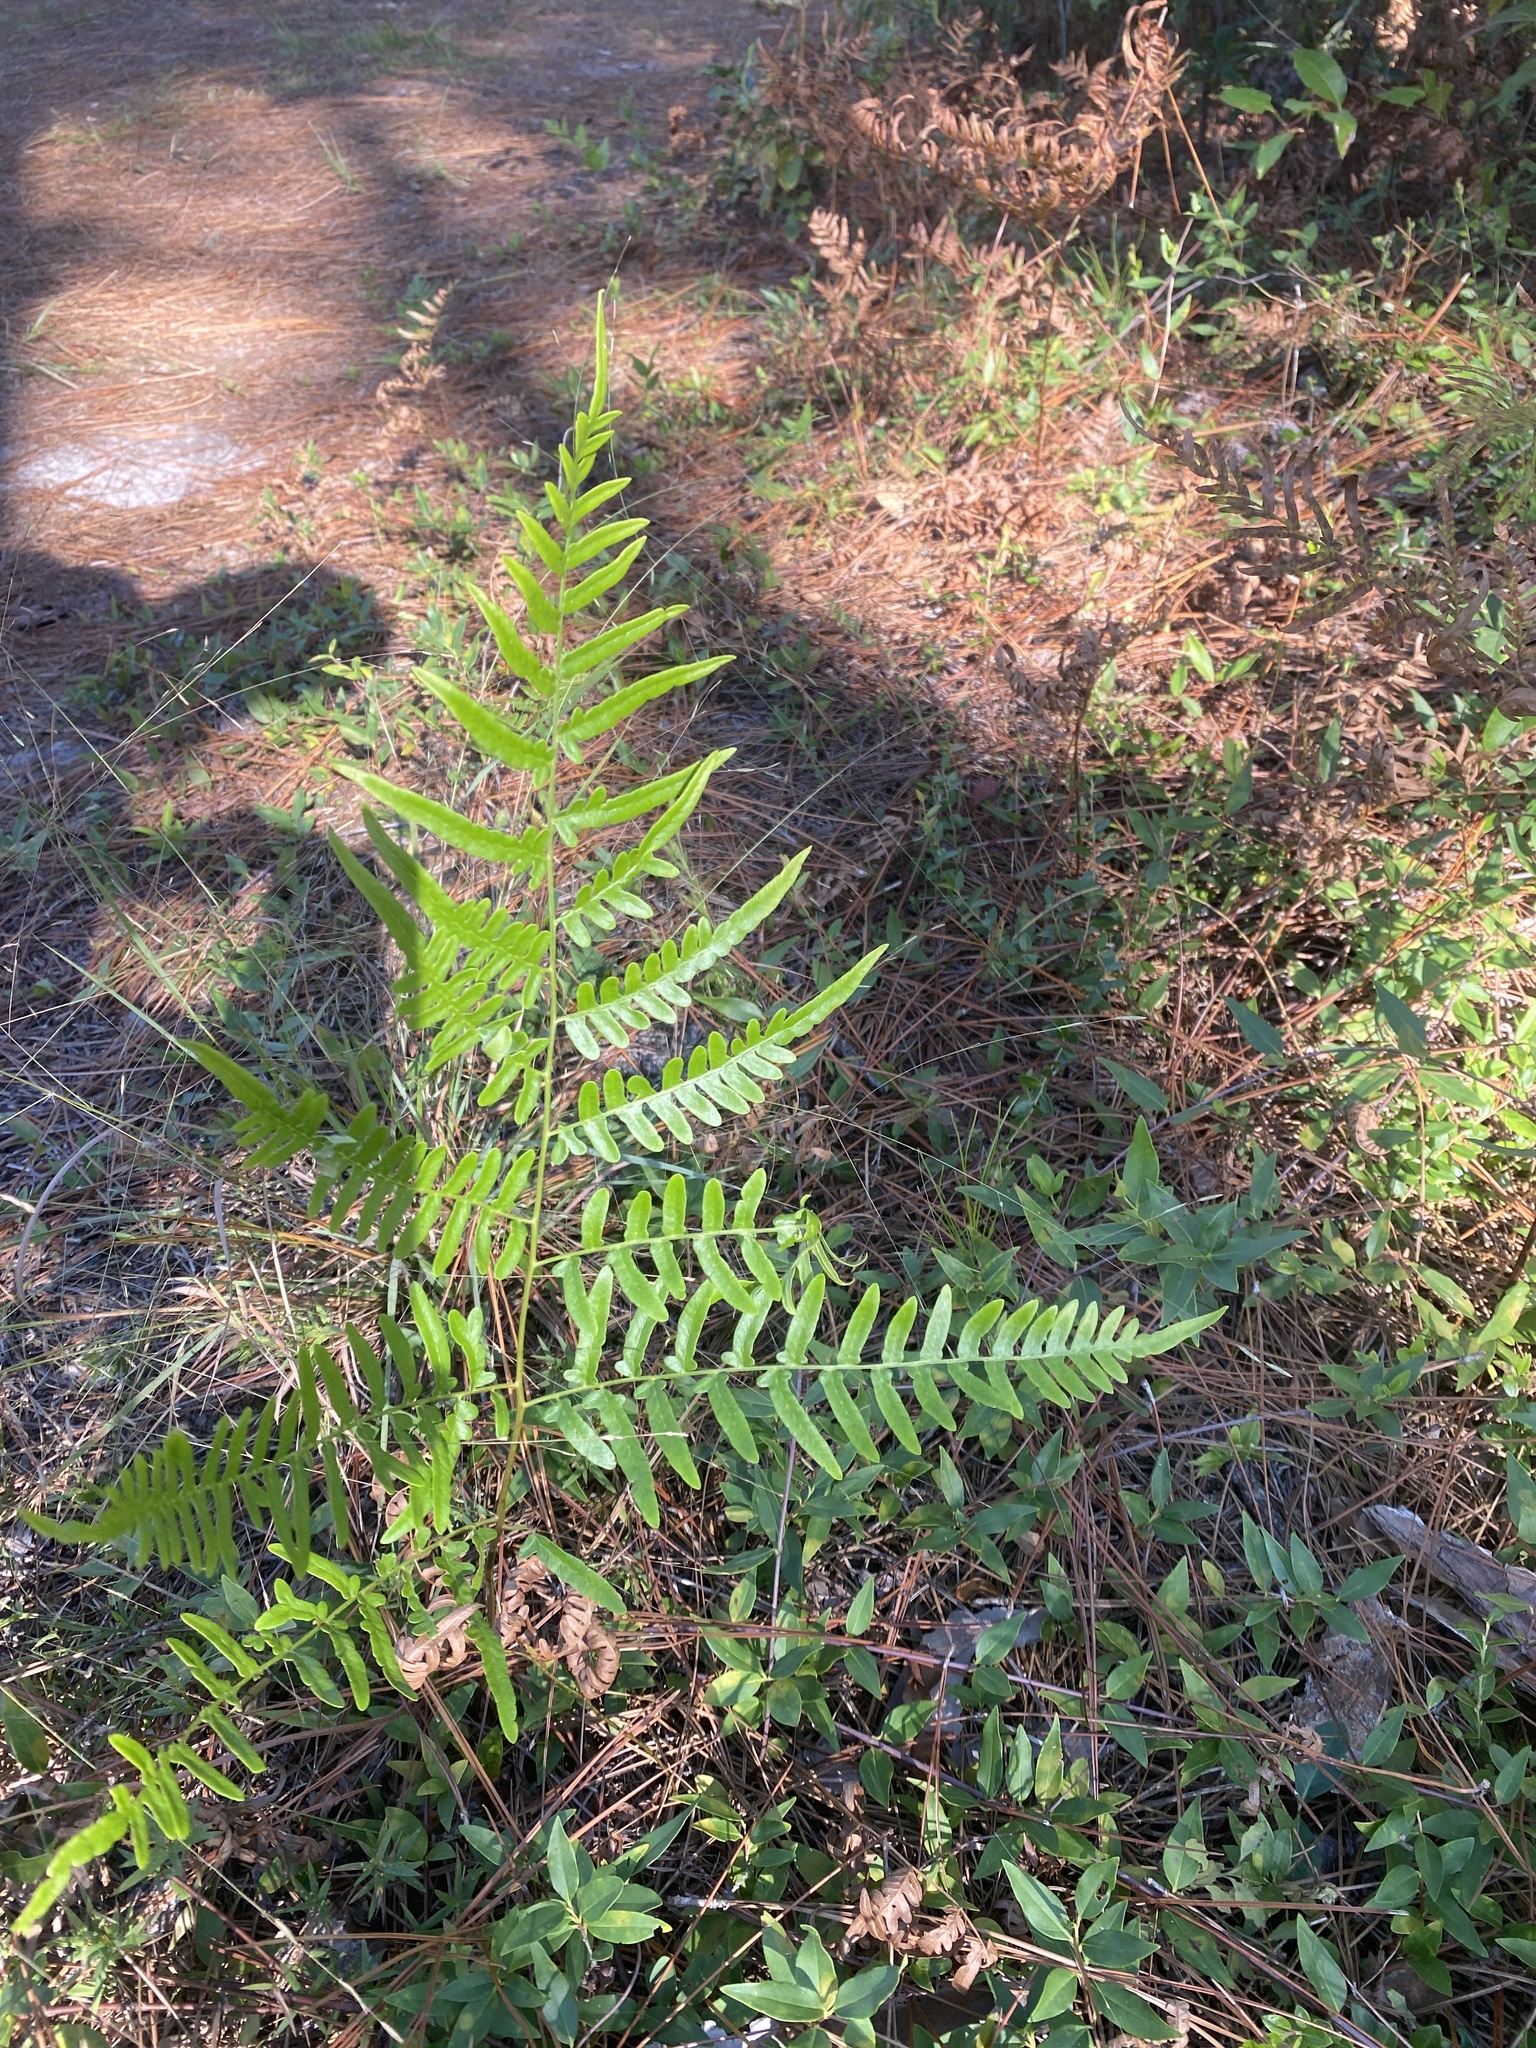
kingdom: Plantae
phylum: Tracheophyta
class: Polypodiopsida
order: Polypodiales
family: Dennstaedtiaceae
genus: Pteridium
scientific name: Pteridium aquilinum
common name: Bracken
